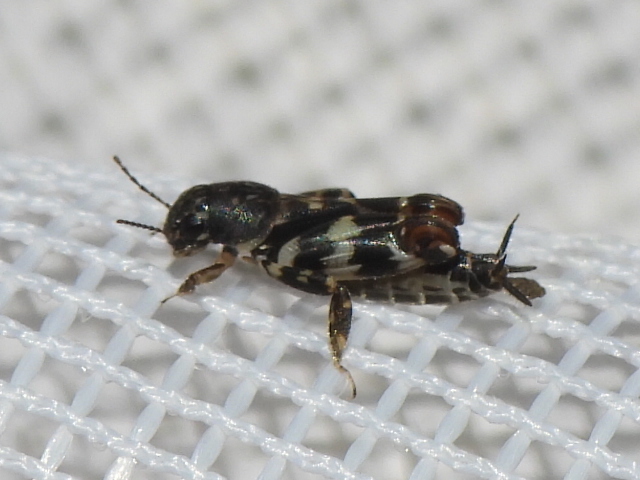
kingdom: Animalia
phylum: Arthropoda
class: Insecta
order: Orthoptera
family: Tridactylidae
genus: Ellipes
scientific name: Ellipes minuta
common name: Minute pygmy locust
